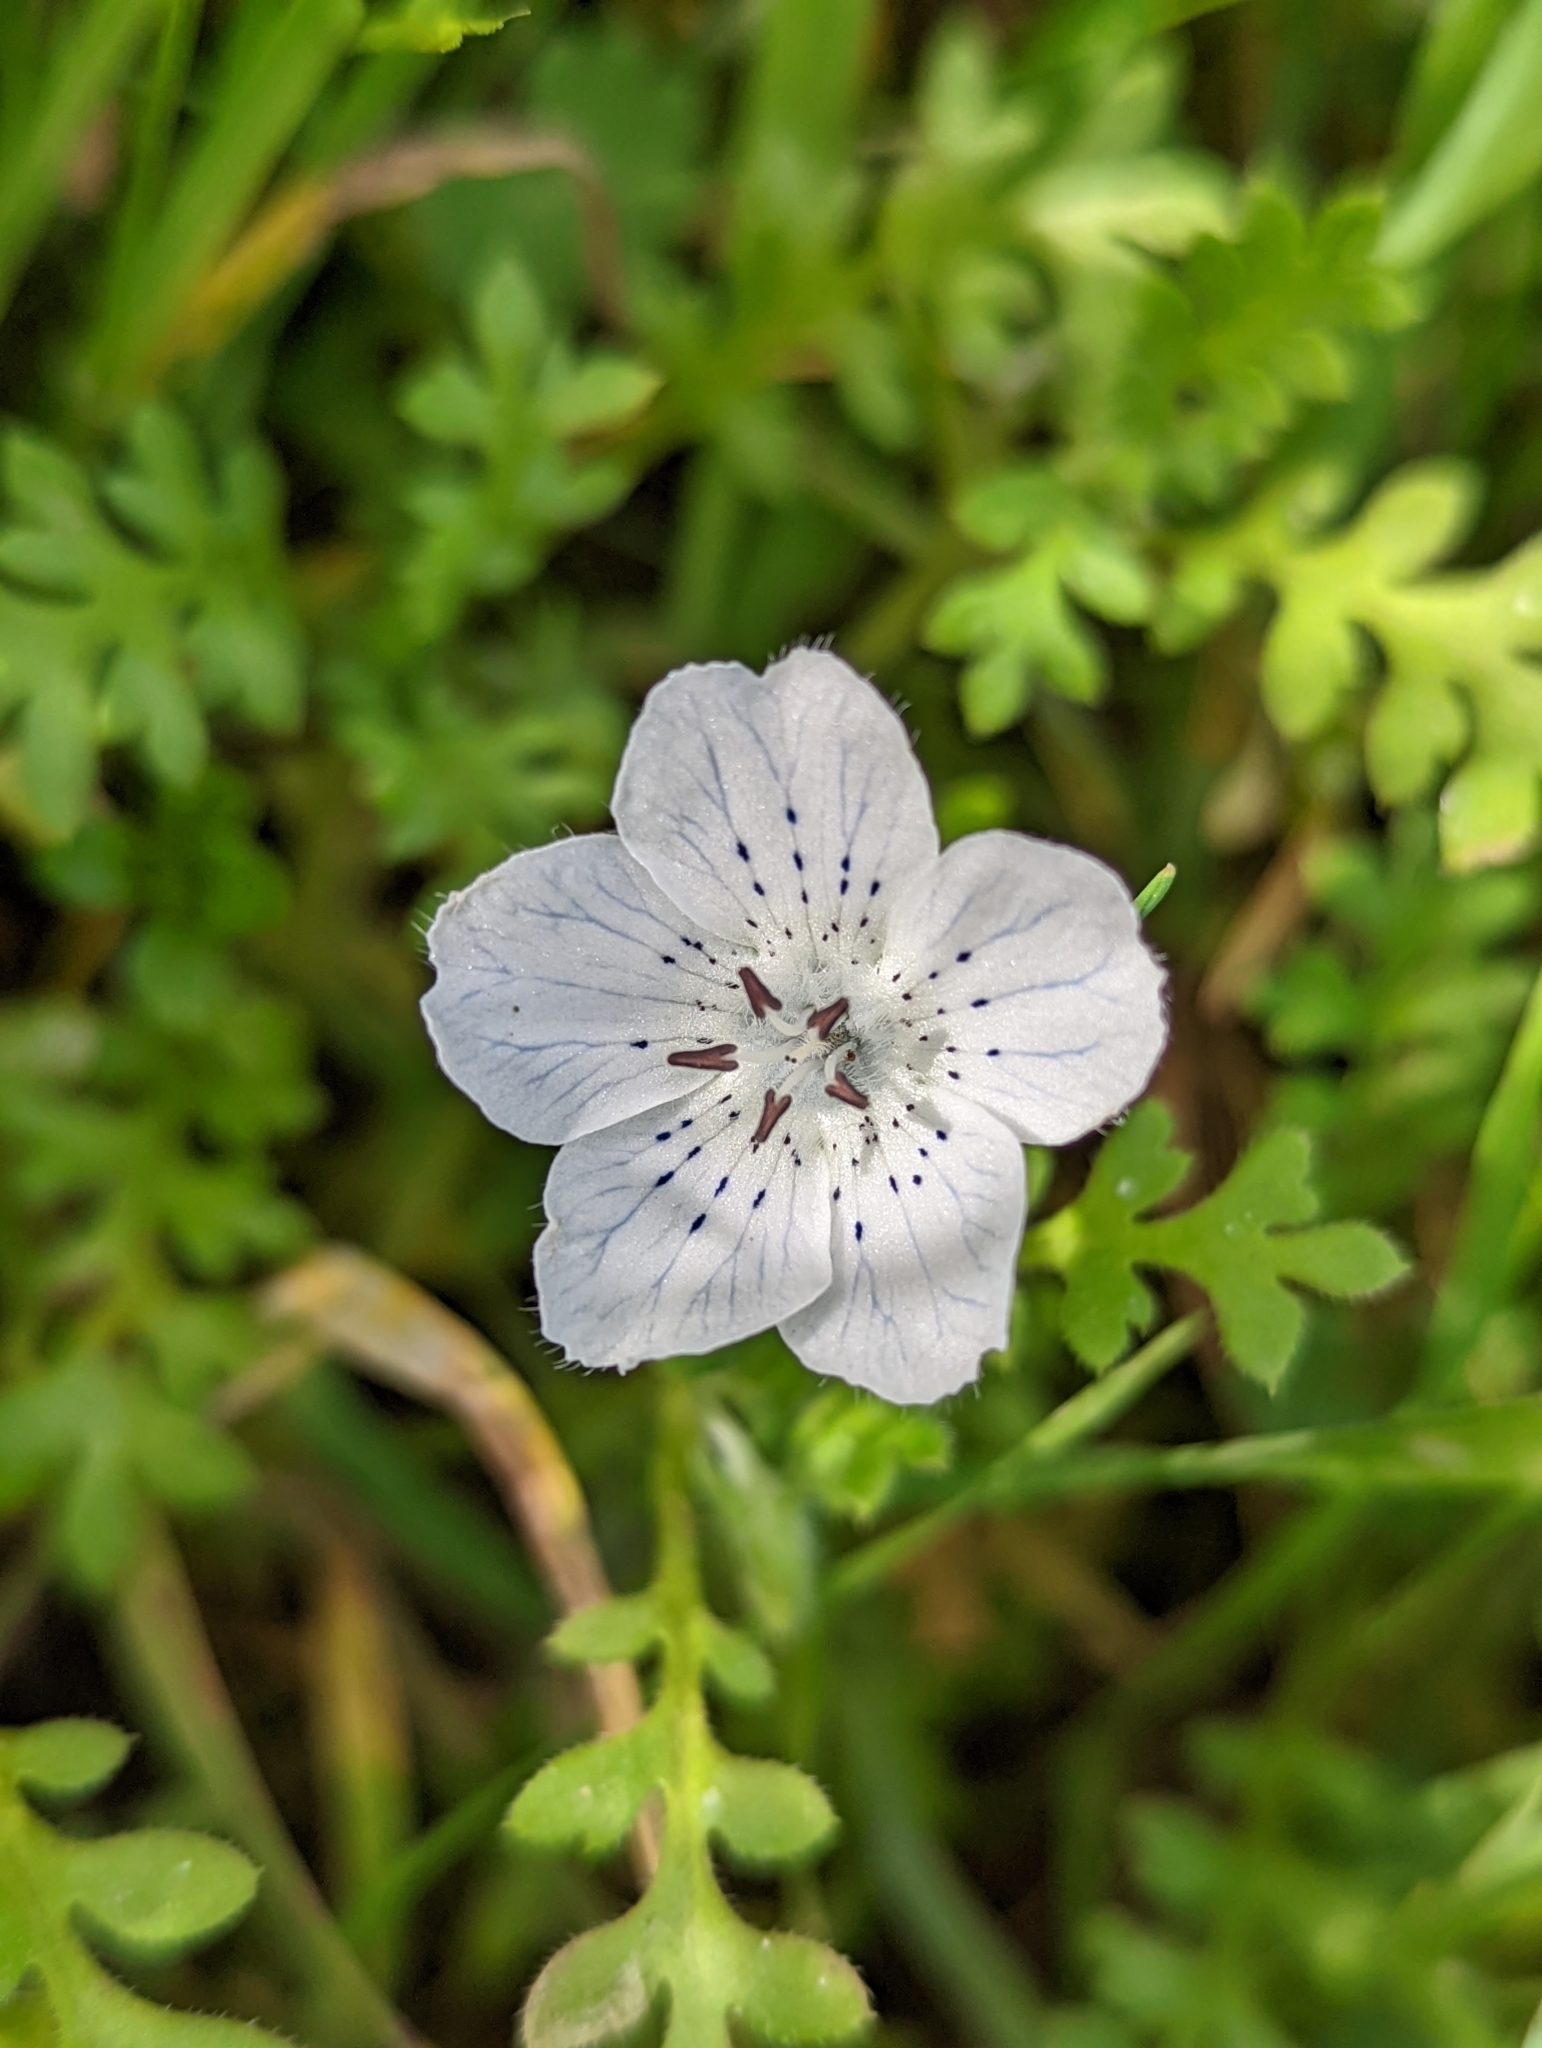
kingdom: Plantae
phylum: Tracheophyta
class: Magnoliopsida
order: Boraginales
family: Hydrophyllaceae
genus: Nemophila
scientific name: Nemophila menziesii
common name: Baby's-blue-eyes
